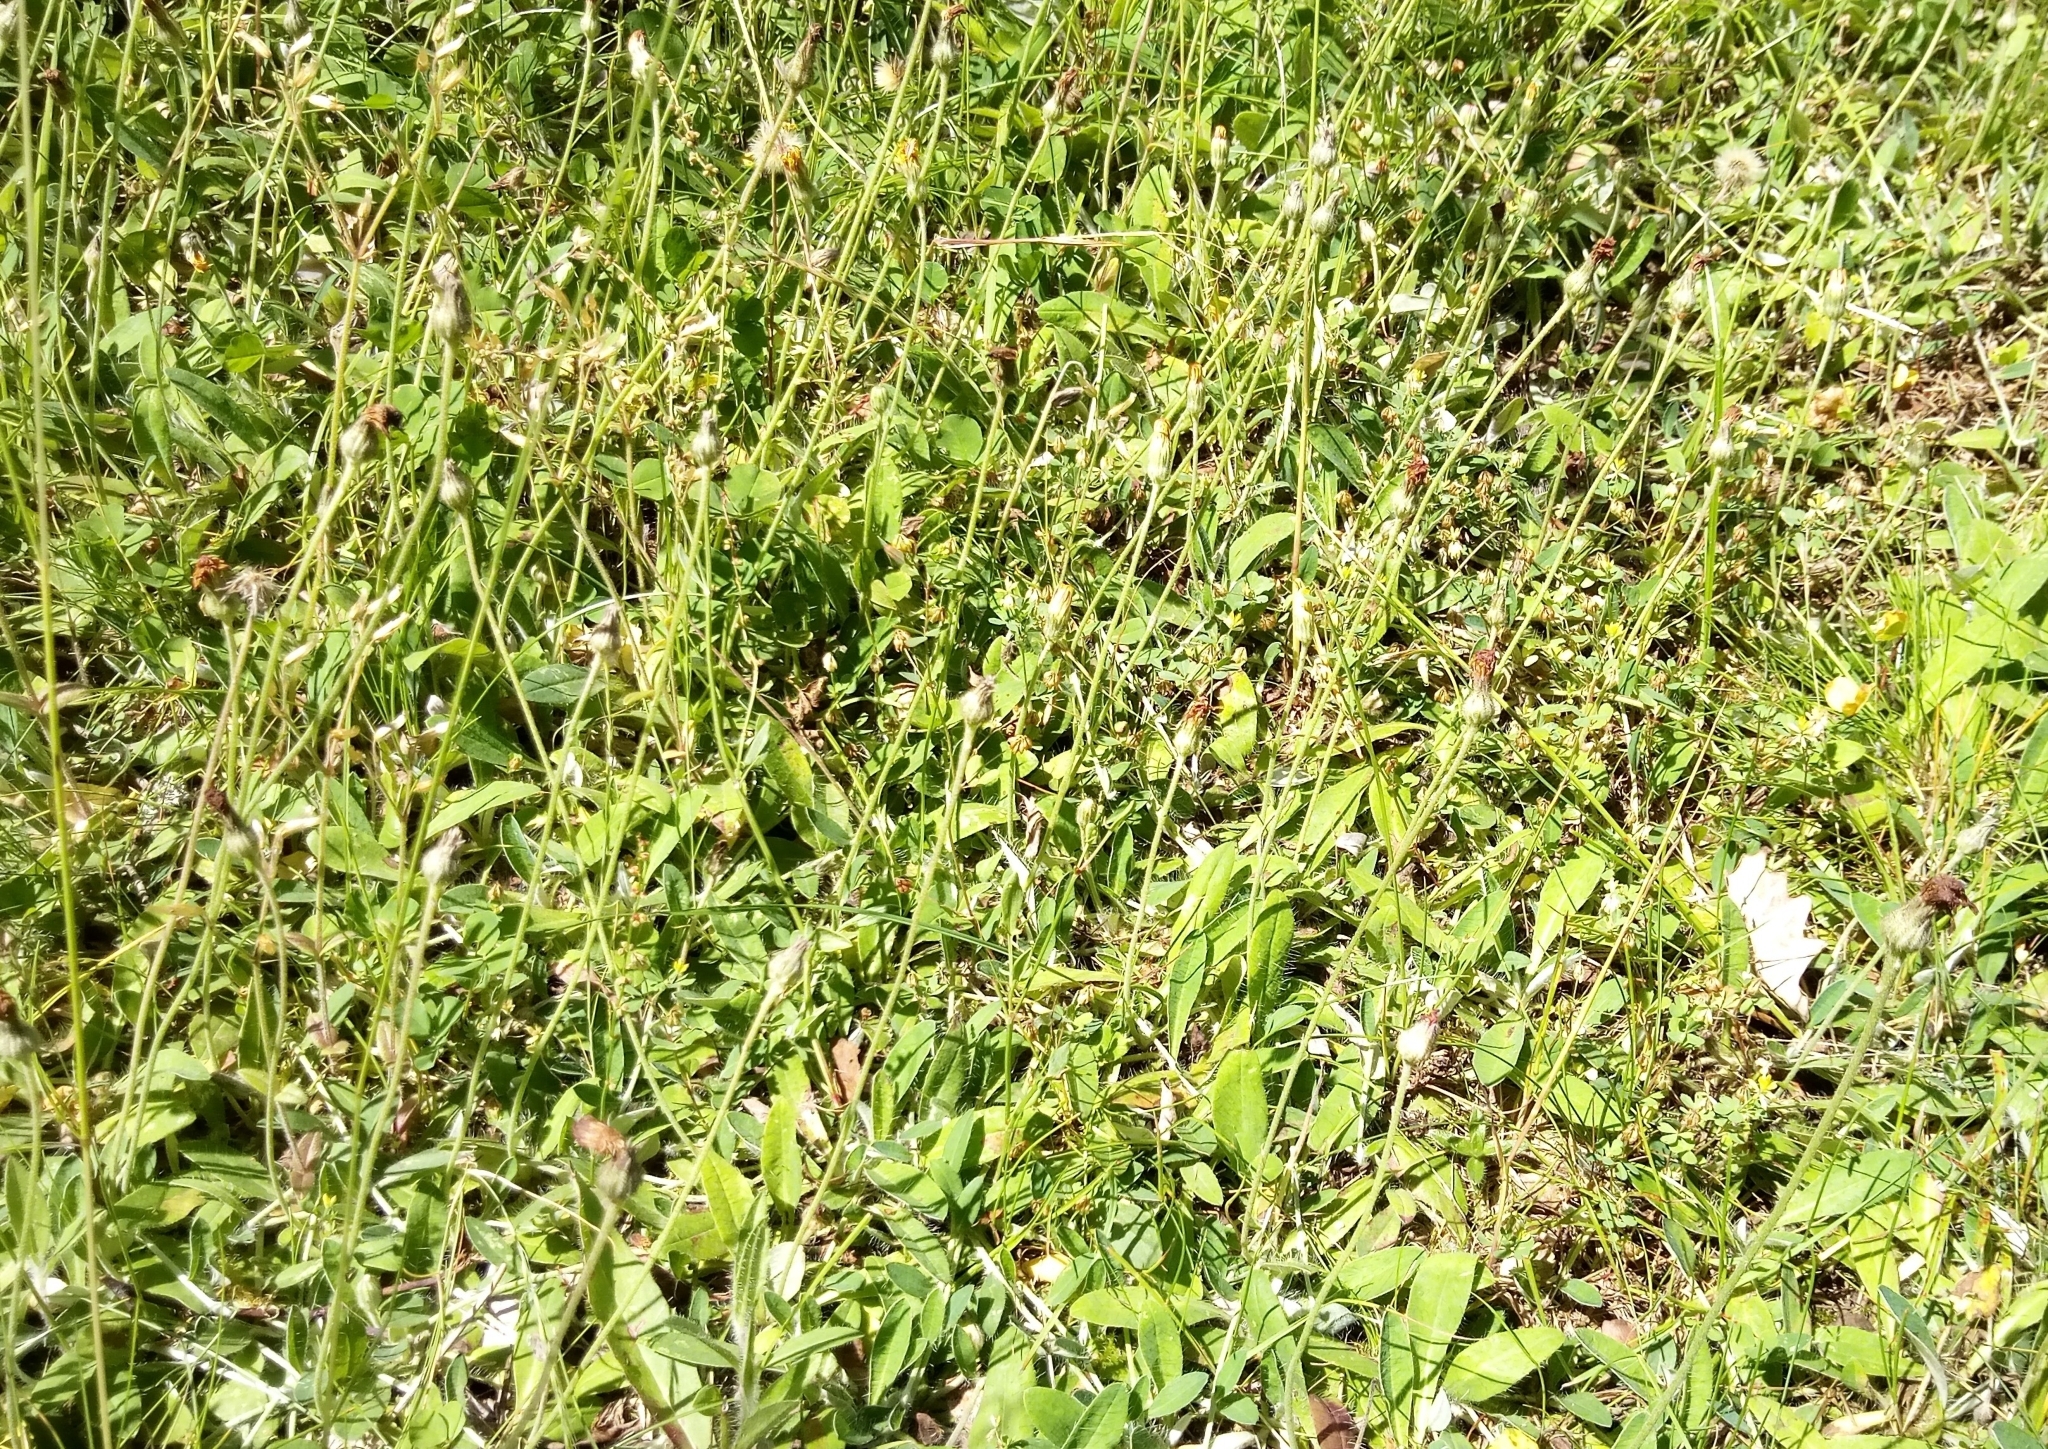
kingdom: Plantae
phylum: Tracheophyta
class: Magnoliopsida
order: Asterales
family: Asteraceae
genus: Pilosella
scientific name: Pilosella officinarum
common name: Mouse-ear hawkweed
